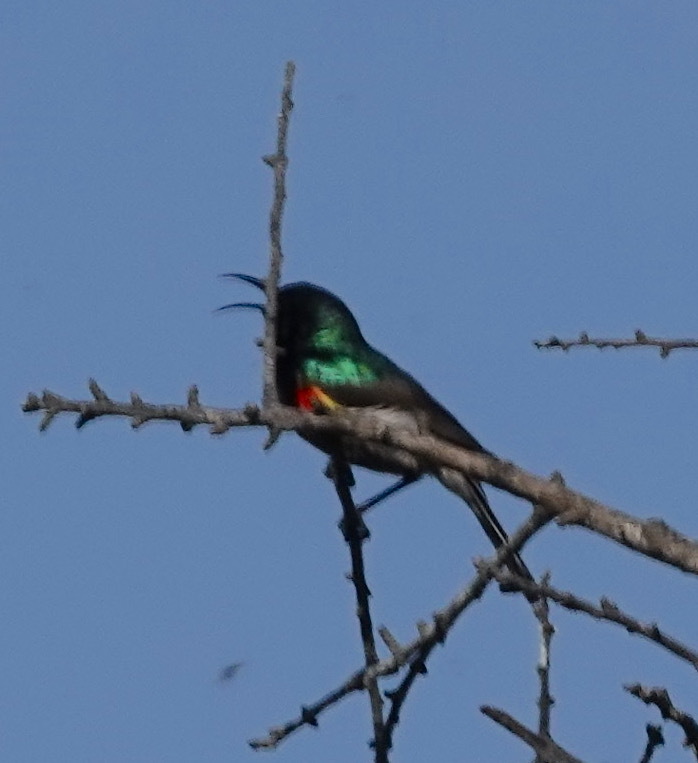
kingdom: Animalia
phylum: Chordata
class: Aves
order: Passeriformes
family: Nectariniidae
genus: Cinnyris
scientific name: Cinnyris chalybeus
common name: Southern double-collared sunbird
